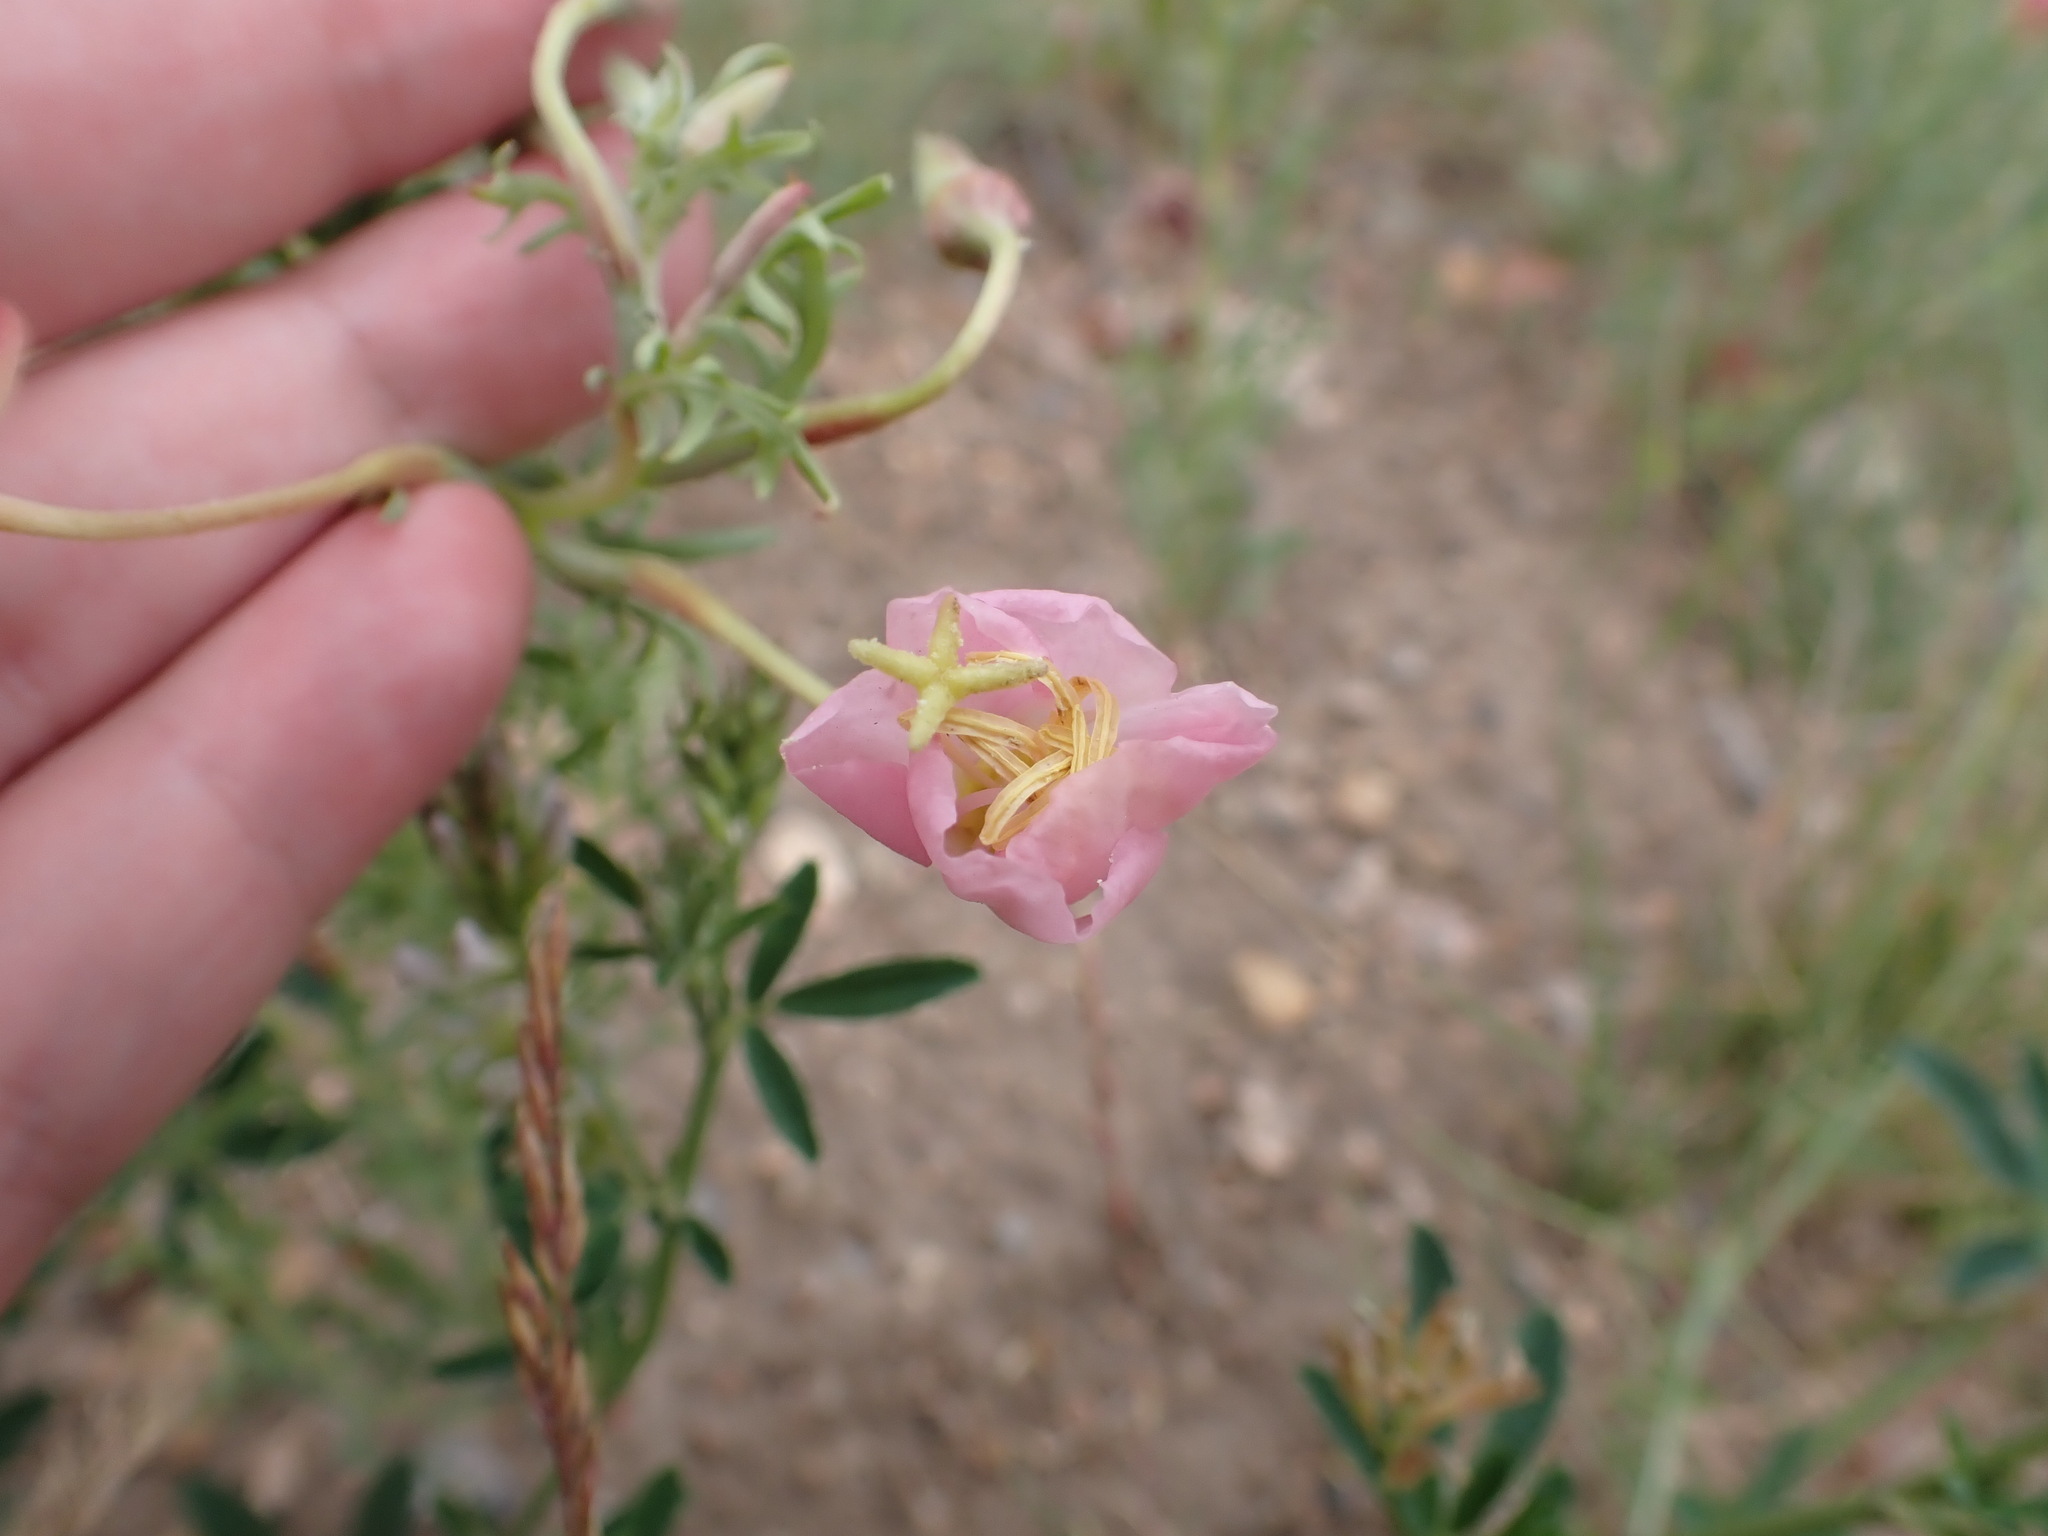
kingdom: Plantae
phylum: Tracheophyta
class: Magnoliopsida
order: Myrtales
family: Onagraceae
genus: Oenothera
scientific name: Oenothera coronopifolia
